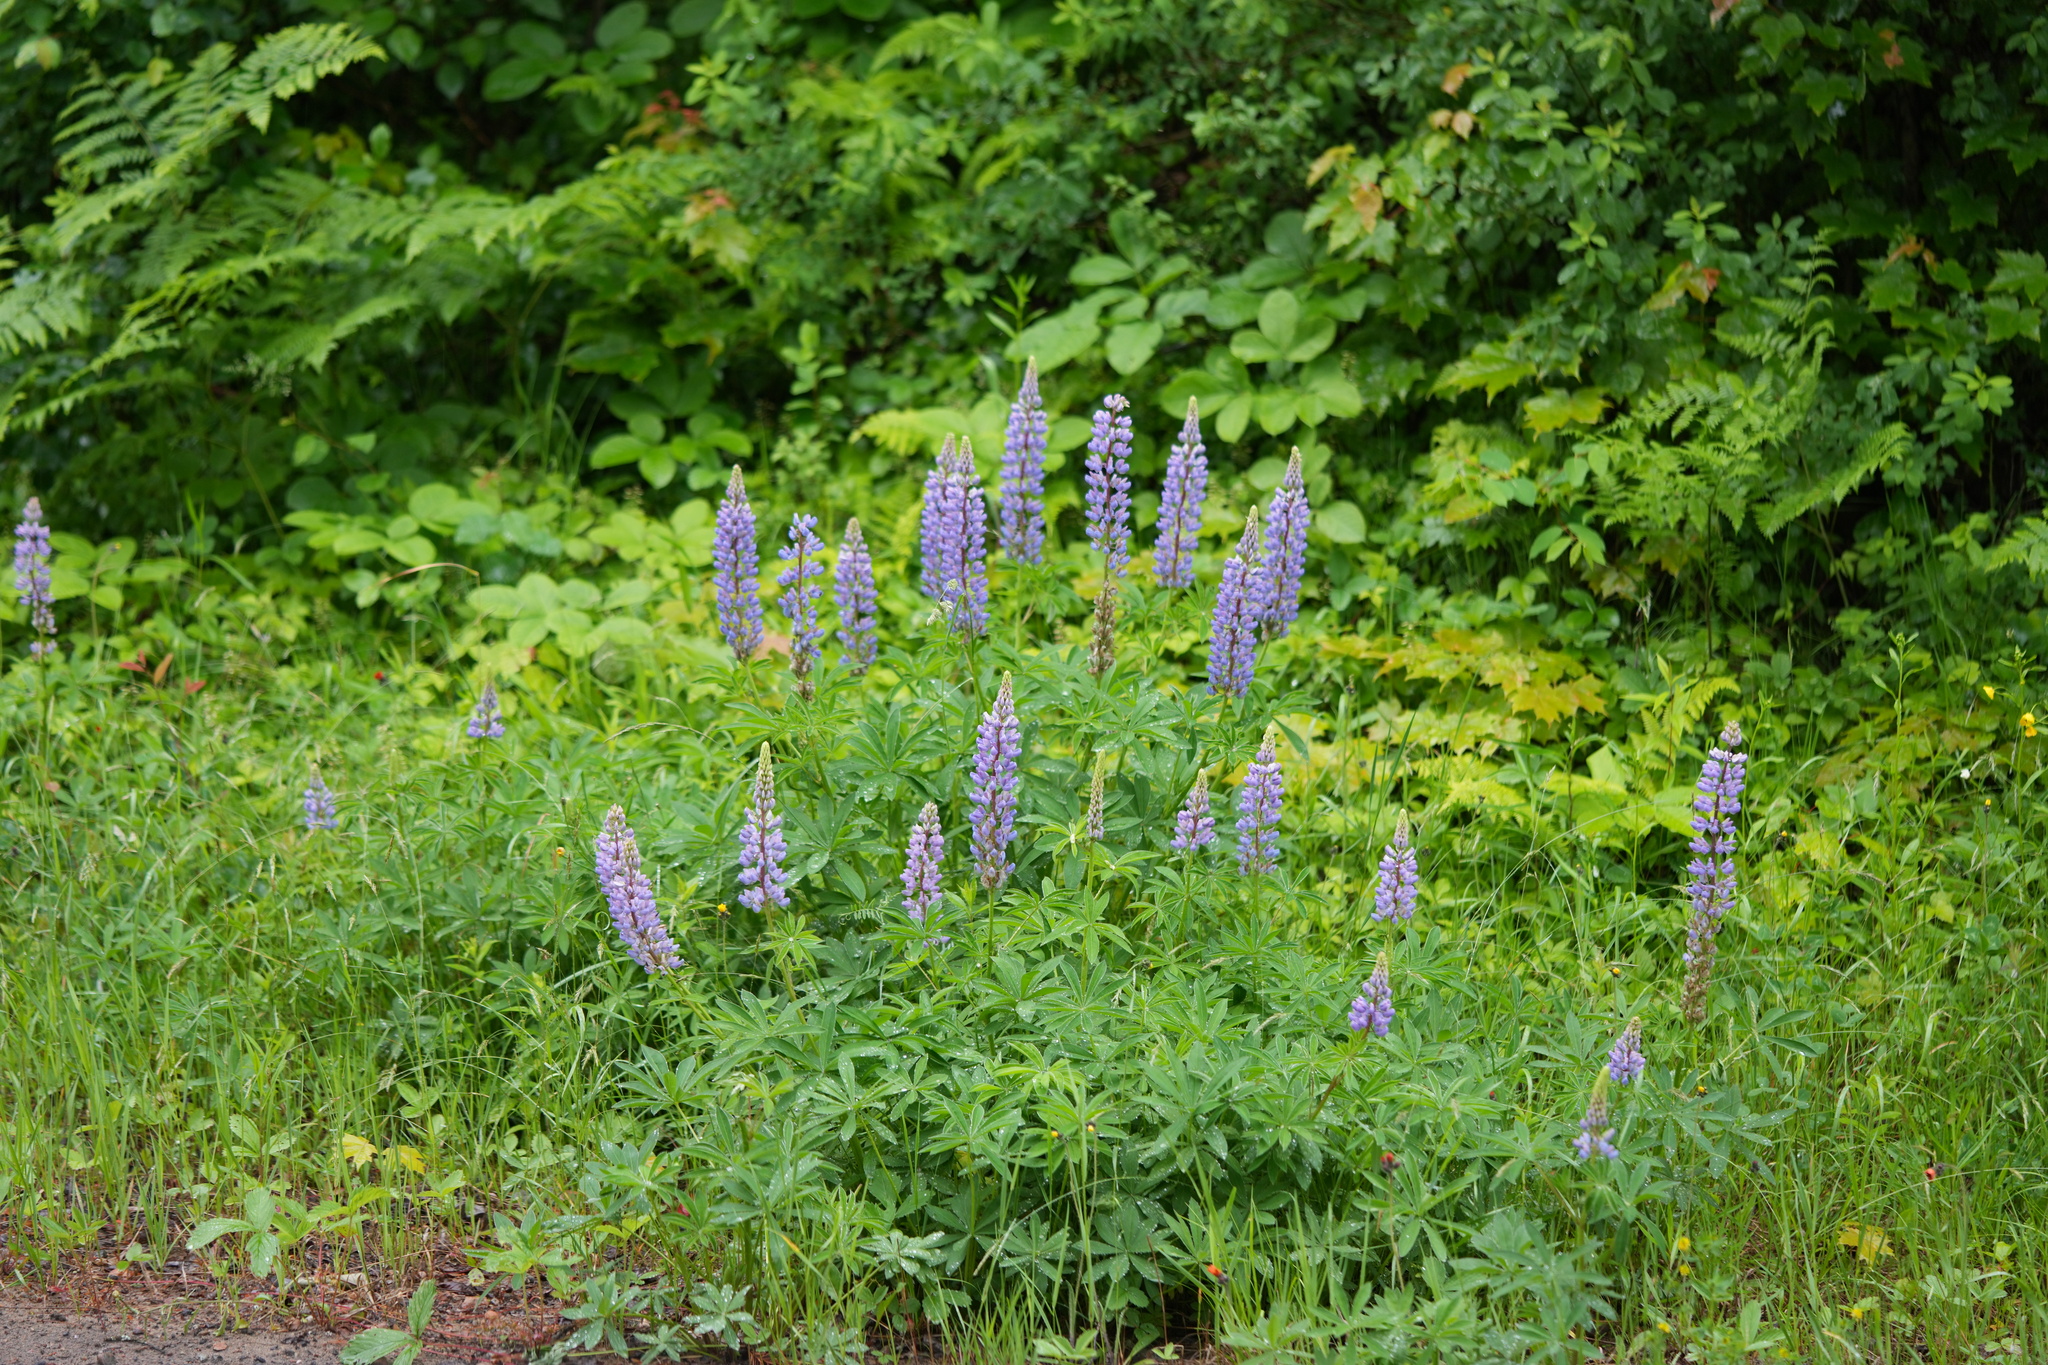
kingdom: Plantae
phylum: Tracheophyta
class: Magnoliopsida
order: Fabales
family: Fabaceae
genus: Lupinus
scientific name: Lupinus polyphyllus
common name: Garden lupin
